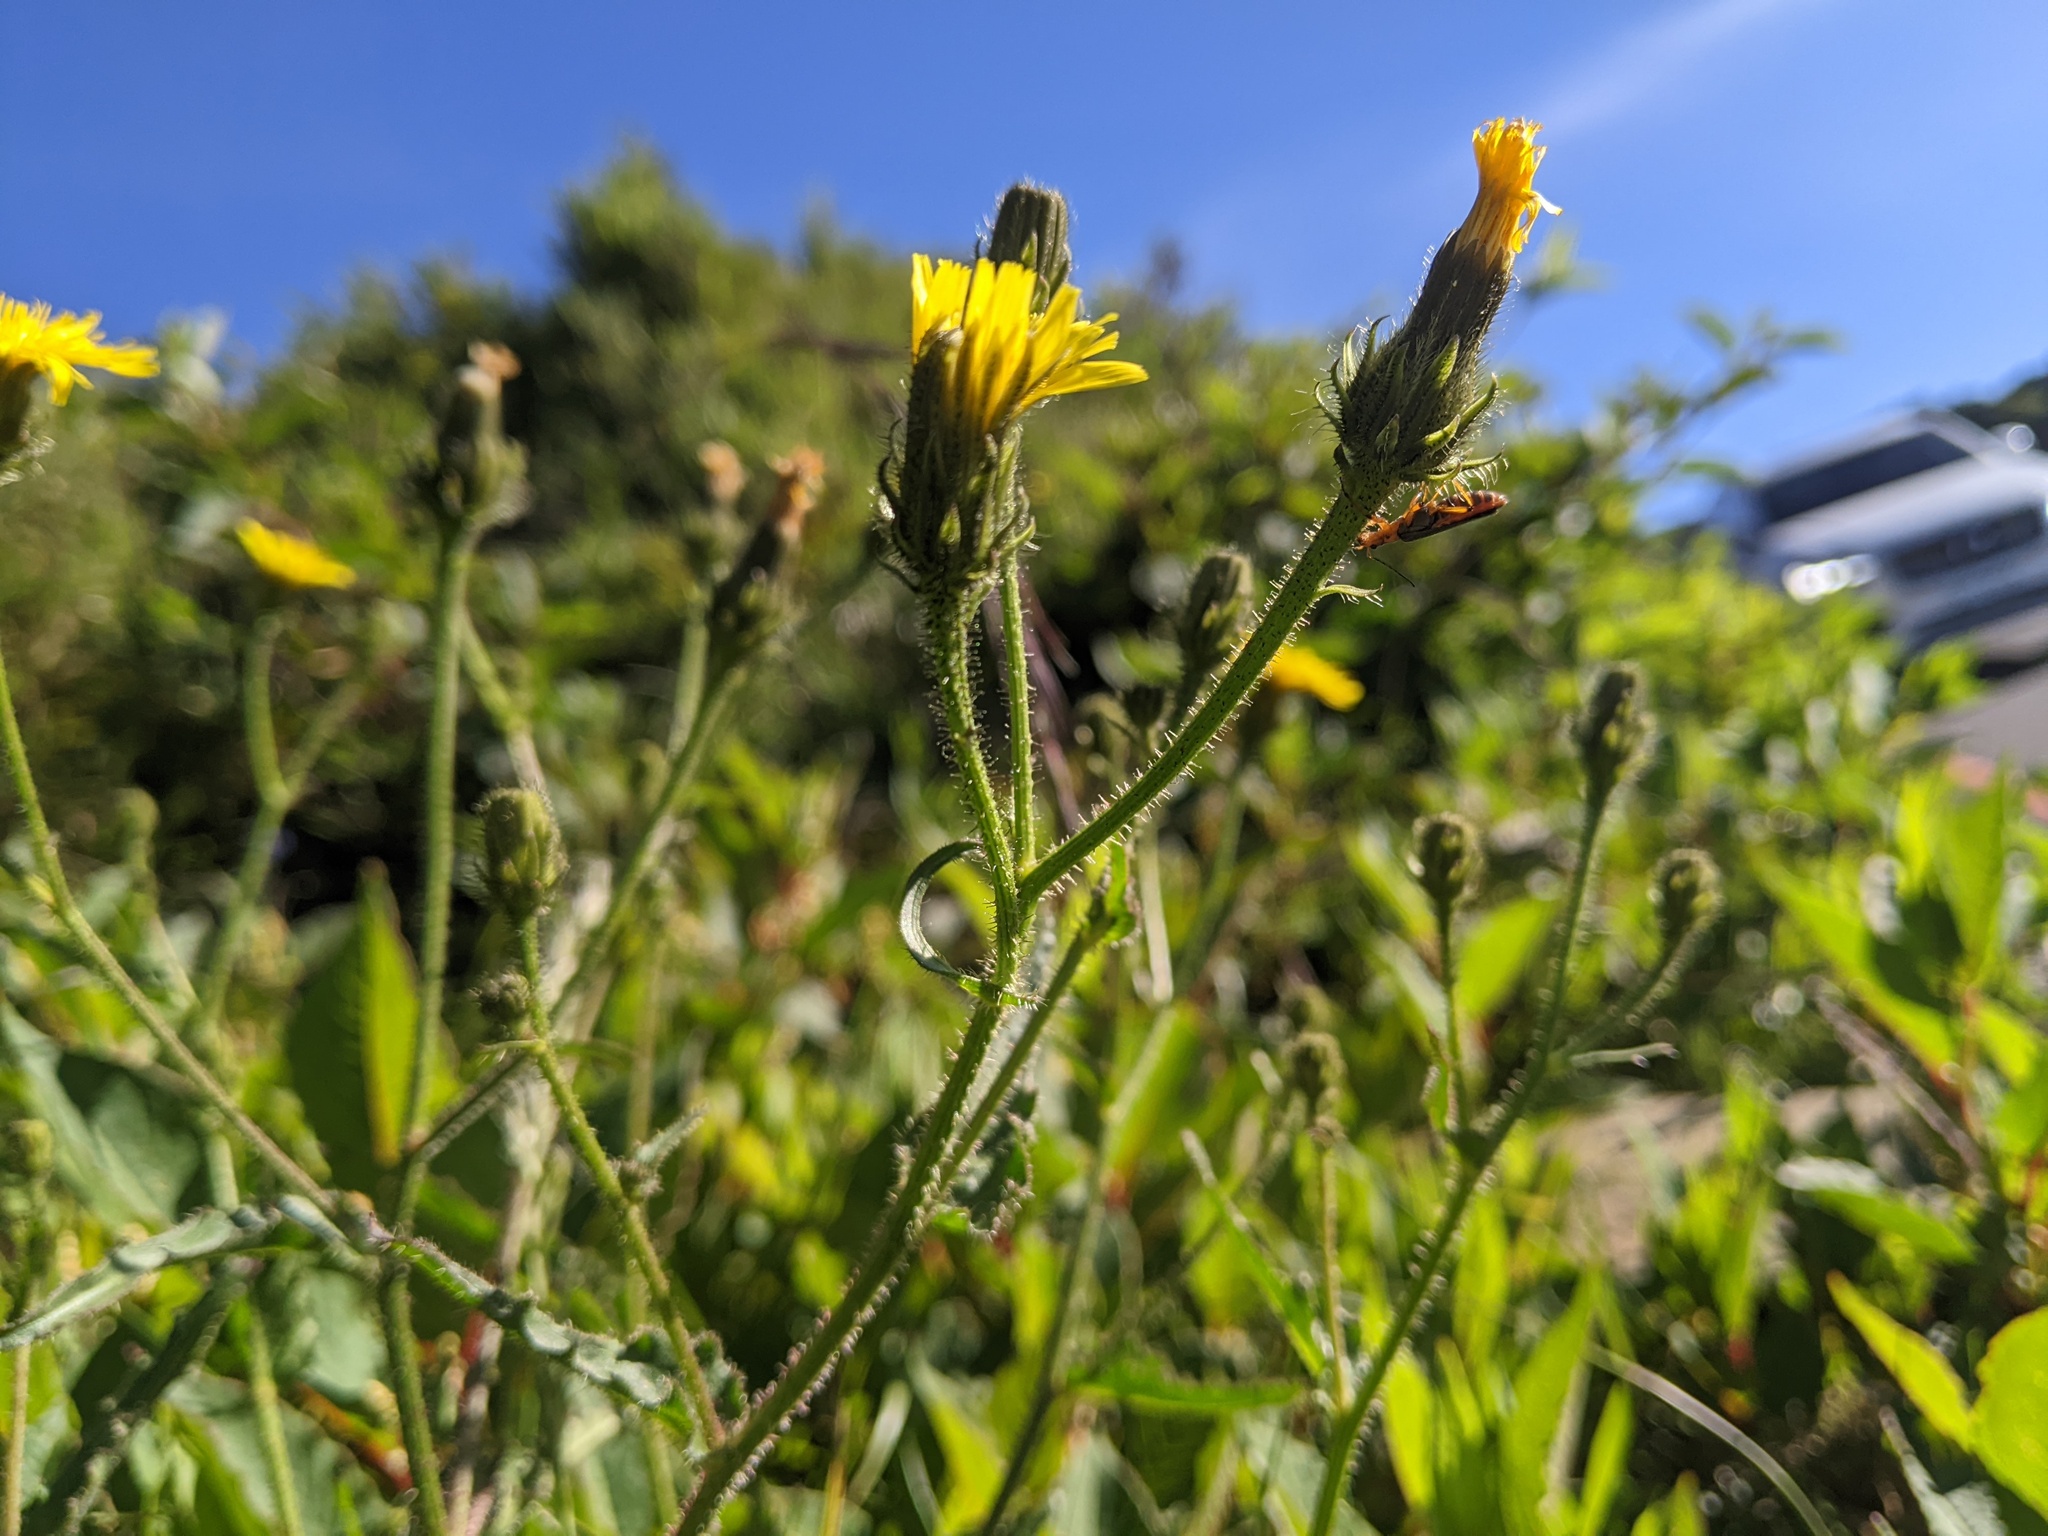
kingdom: Plantae
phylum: Tracheophyta
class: Magnoliopsida
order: Asterales
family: Asteraceae
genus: Picris
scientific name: Picris angustifolia
